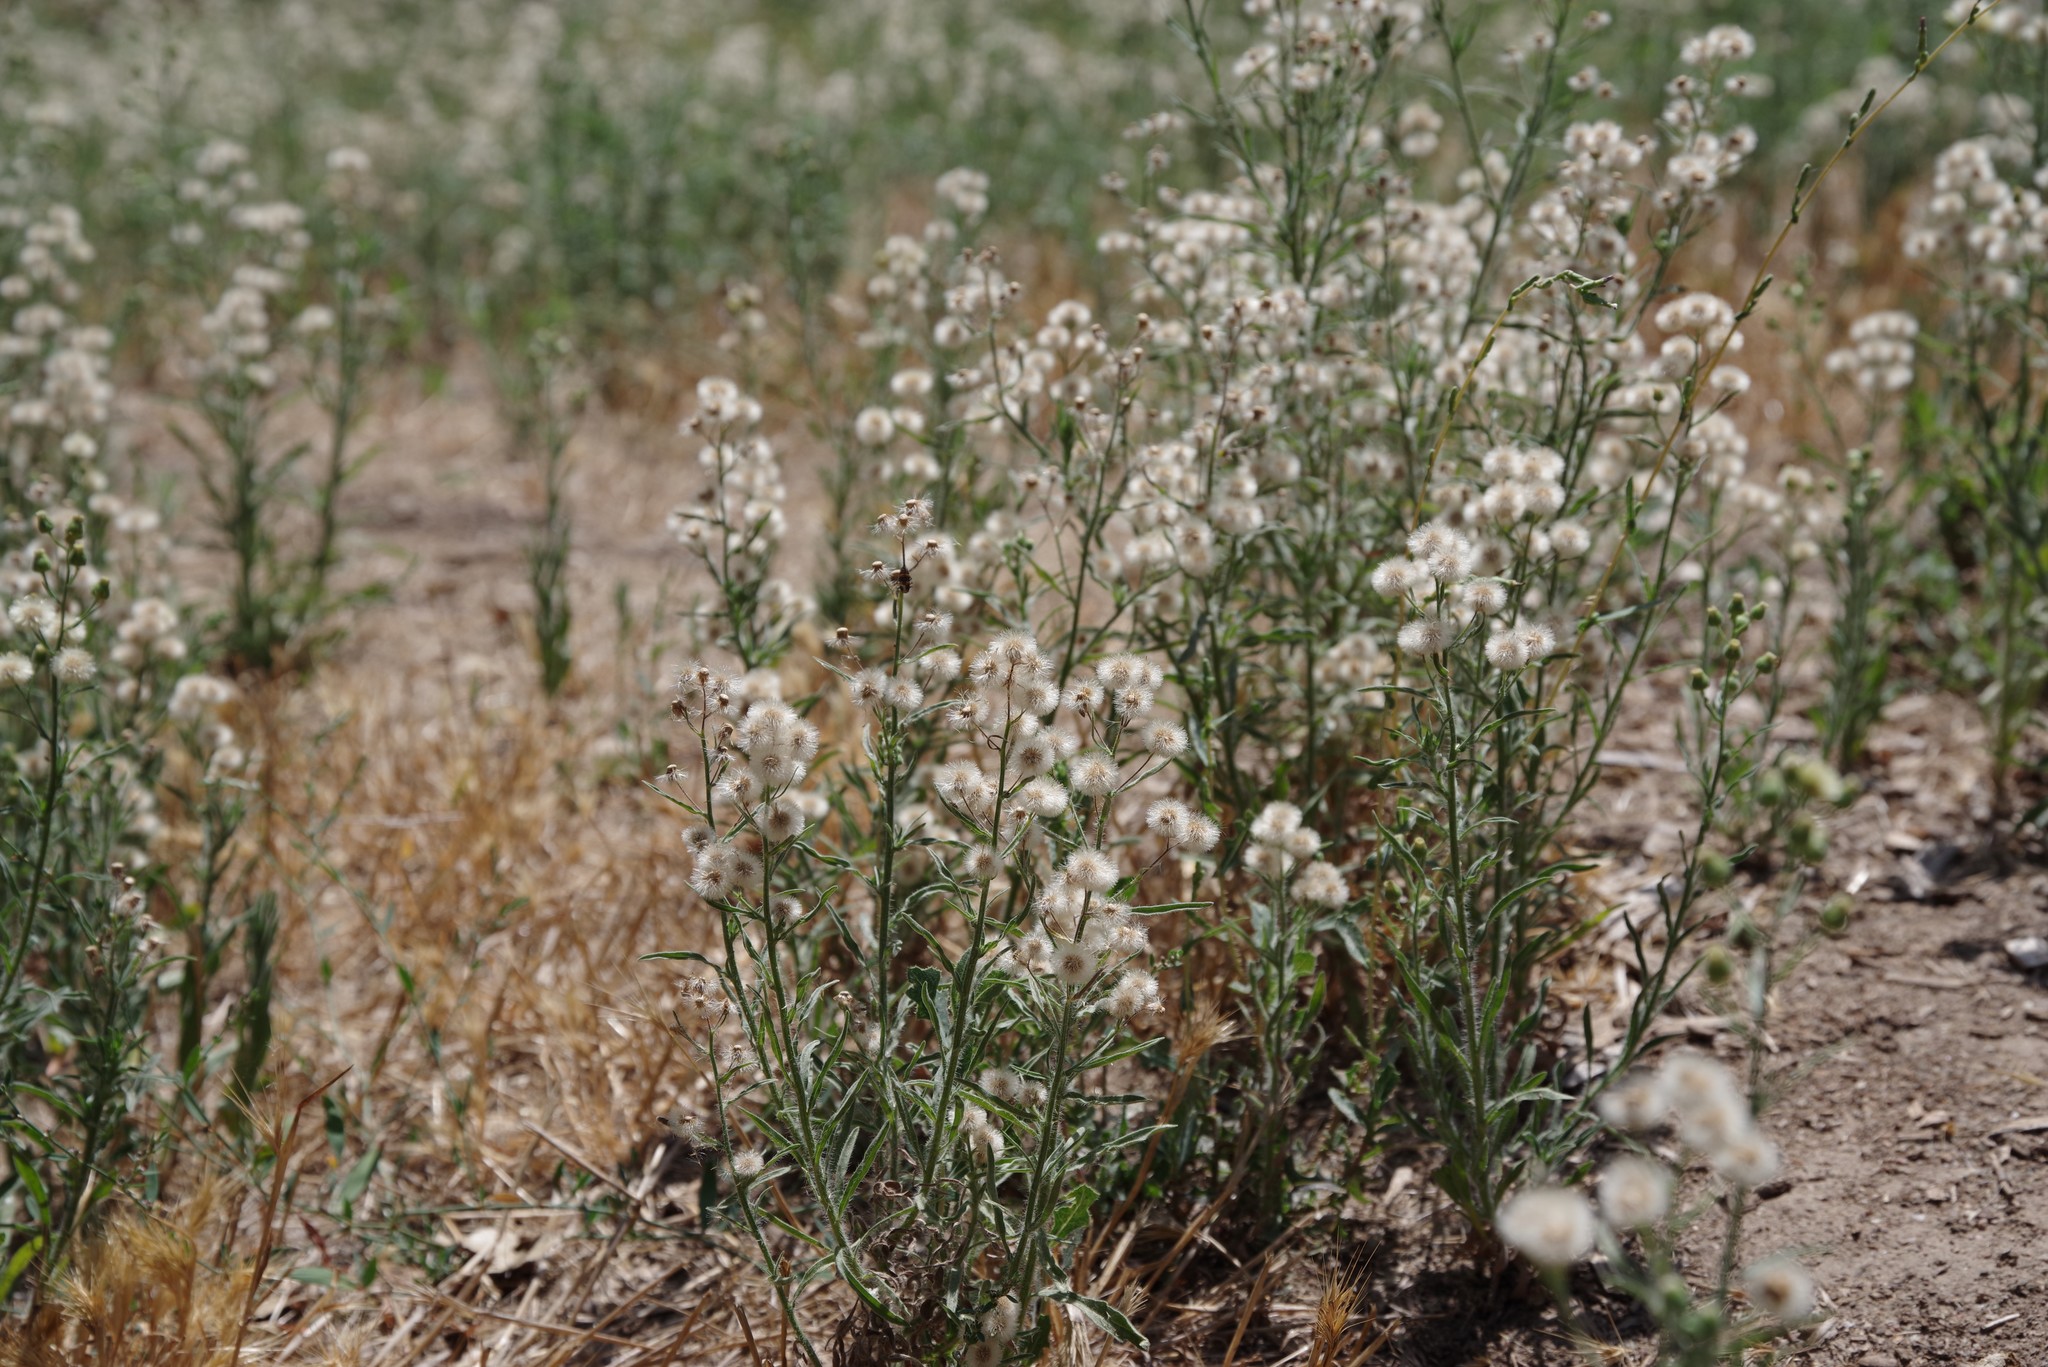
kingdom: Plantae
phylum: Tracheophyta
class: Magnoliopsida
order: Asterales
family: Asteraceae
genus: Erigeron
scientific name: Erigeron bonariensis
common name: Argentine fleabane
